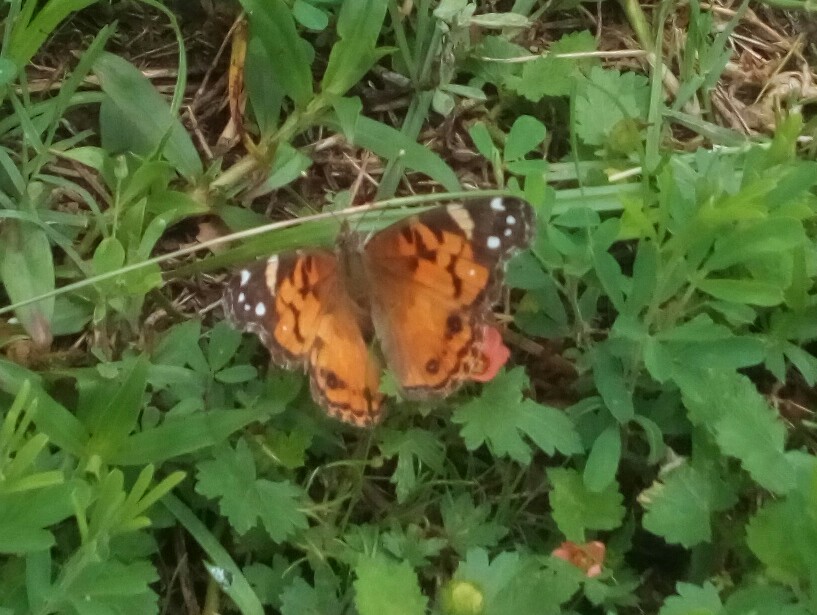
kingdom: Animalia
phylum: Arthropoda
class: Insecta
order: Lepidoptera
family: Nymphalidae
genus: Vanessa
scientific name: Vanessa virginiensis
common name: American lady
